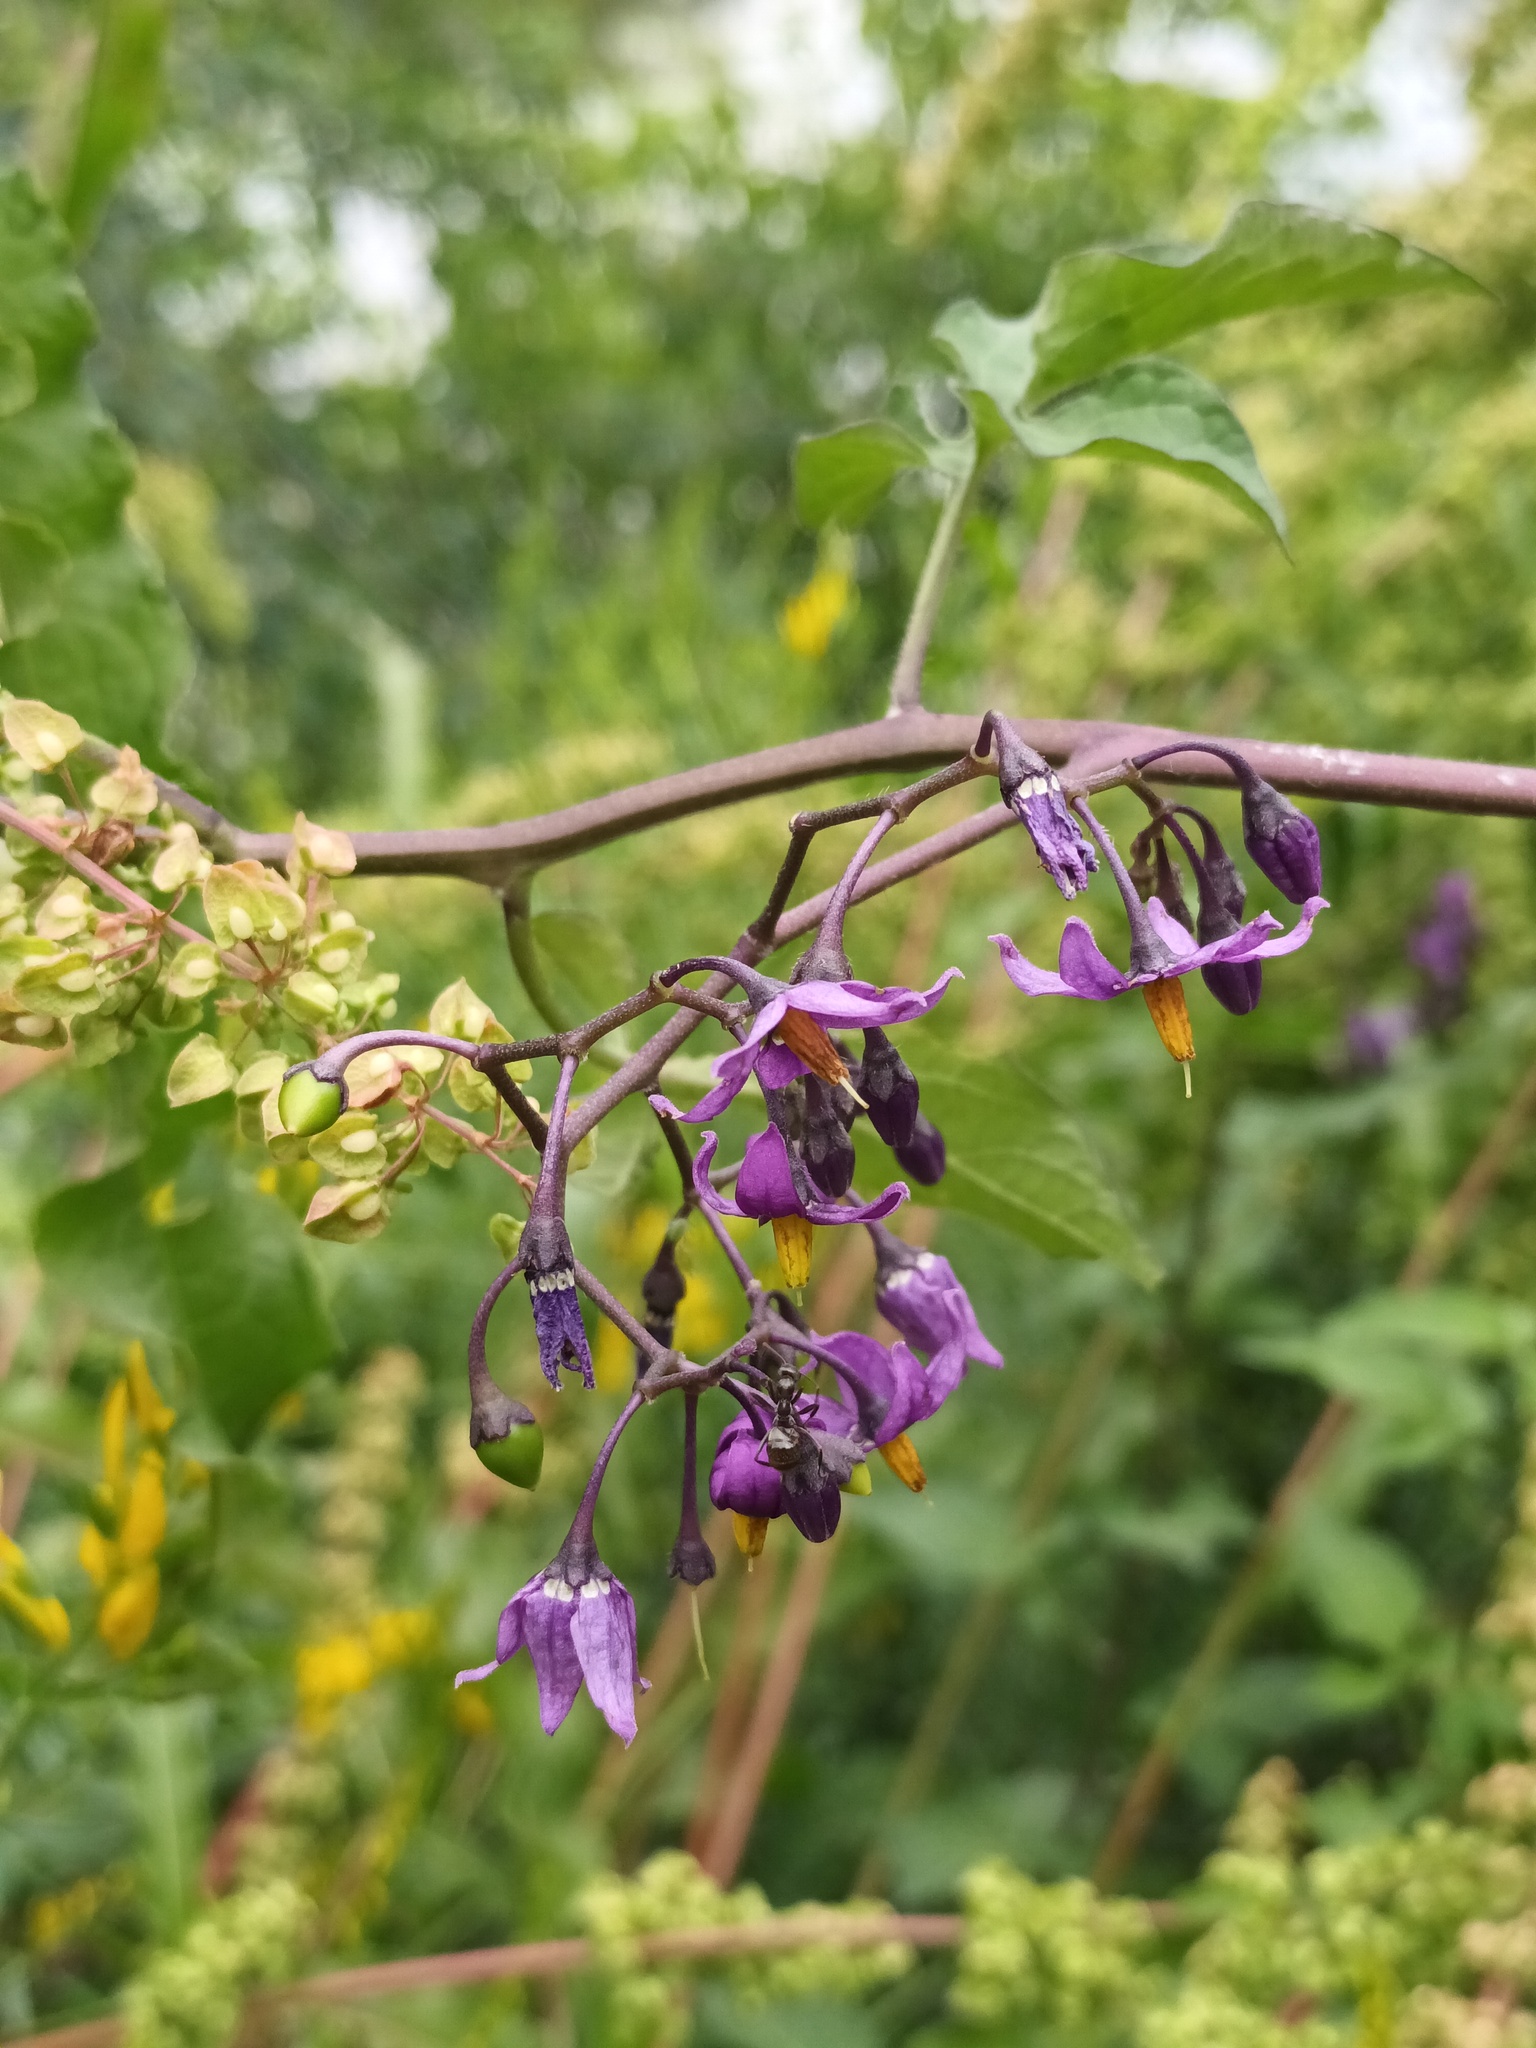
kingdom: Plantae
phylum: Tracheophyta
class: Magnoliopsida
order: Solanales
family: Solanaceae
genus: Solanum
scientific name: Solanum dulcamara
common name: Climbing nightshade
